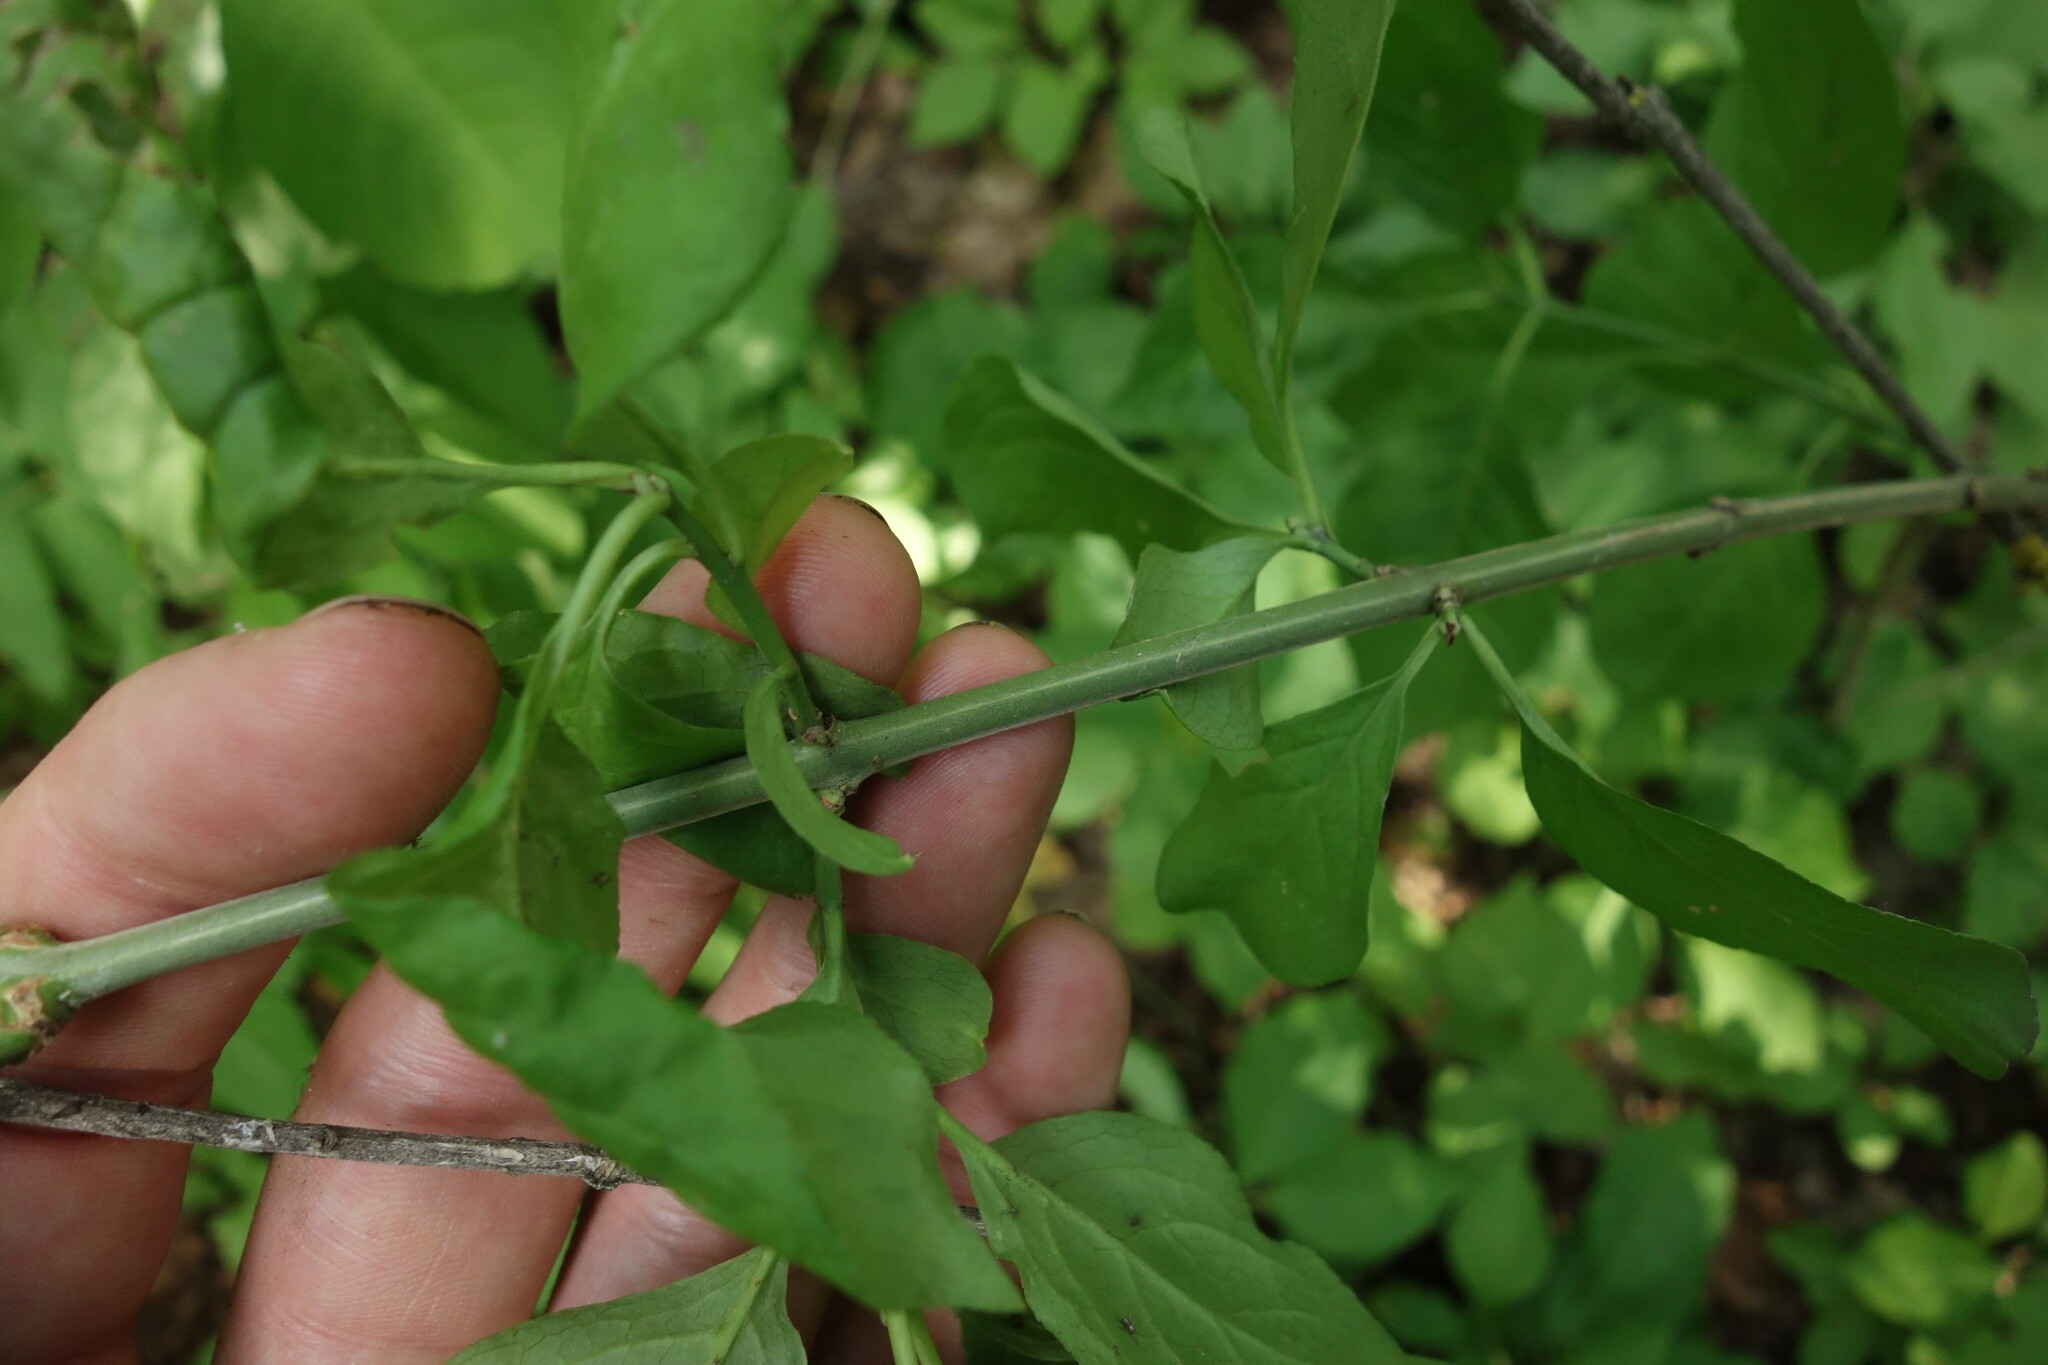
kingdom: Plantae
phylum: Tracheophyta
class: Magnoliopsida
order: Celastrales
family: Celastraceae
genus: Euonymus
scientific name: Euonymus europaeus
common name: Spindle
